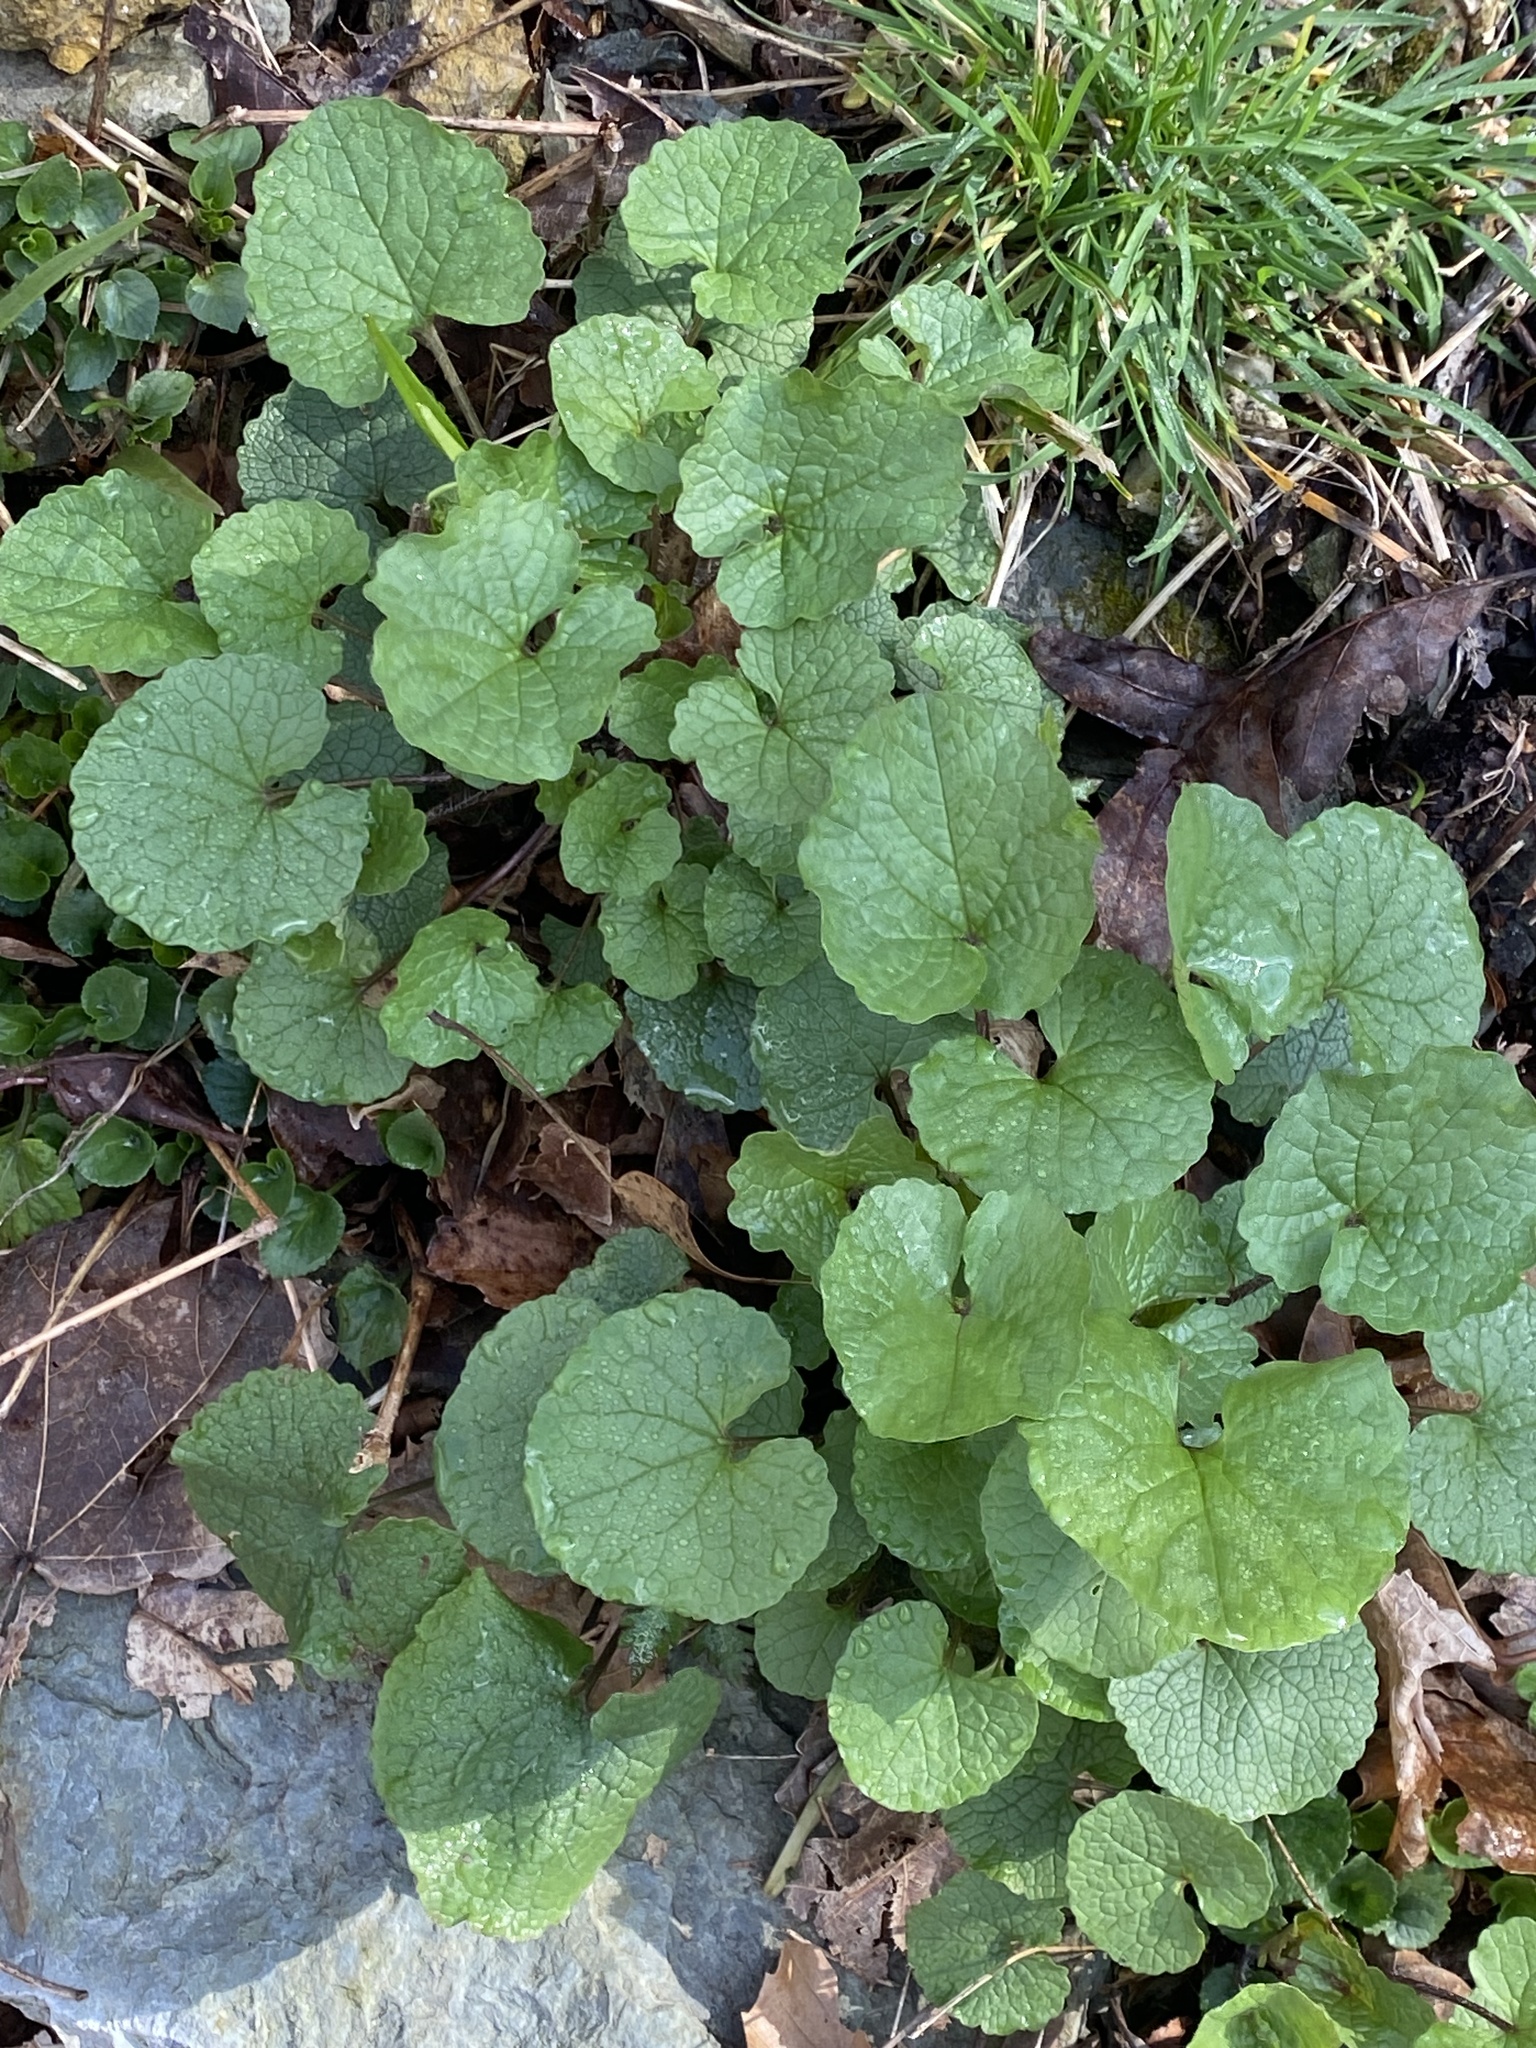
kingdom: Plantae
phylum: Tracheophyta
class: Magnoliopsida
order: Brassicales
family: Brassicaceae
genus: Alliaria
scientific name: Alliaria petiolata
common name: Garlic mustard
